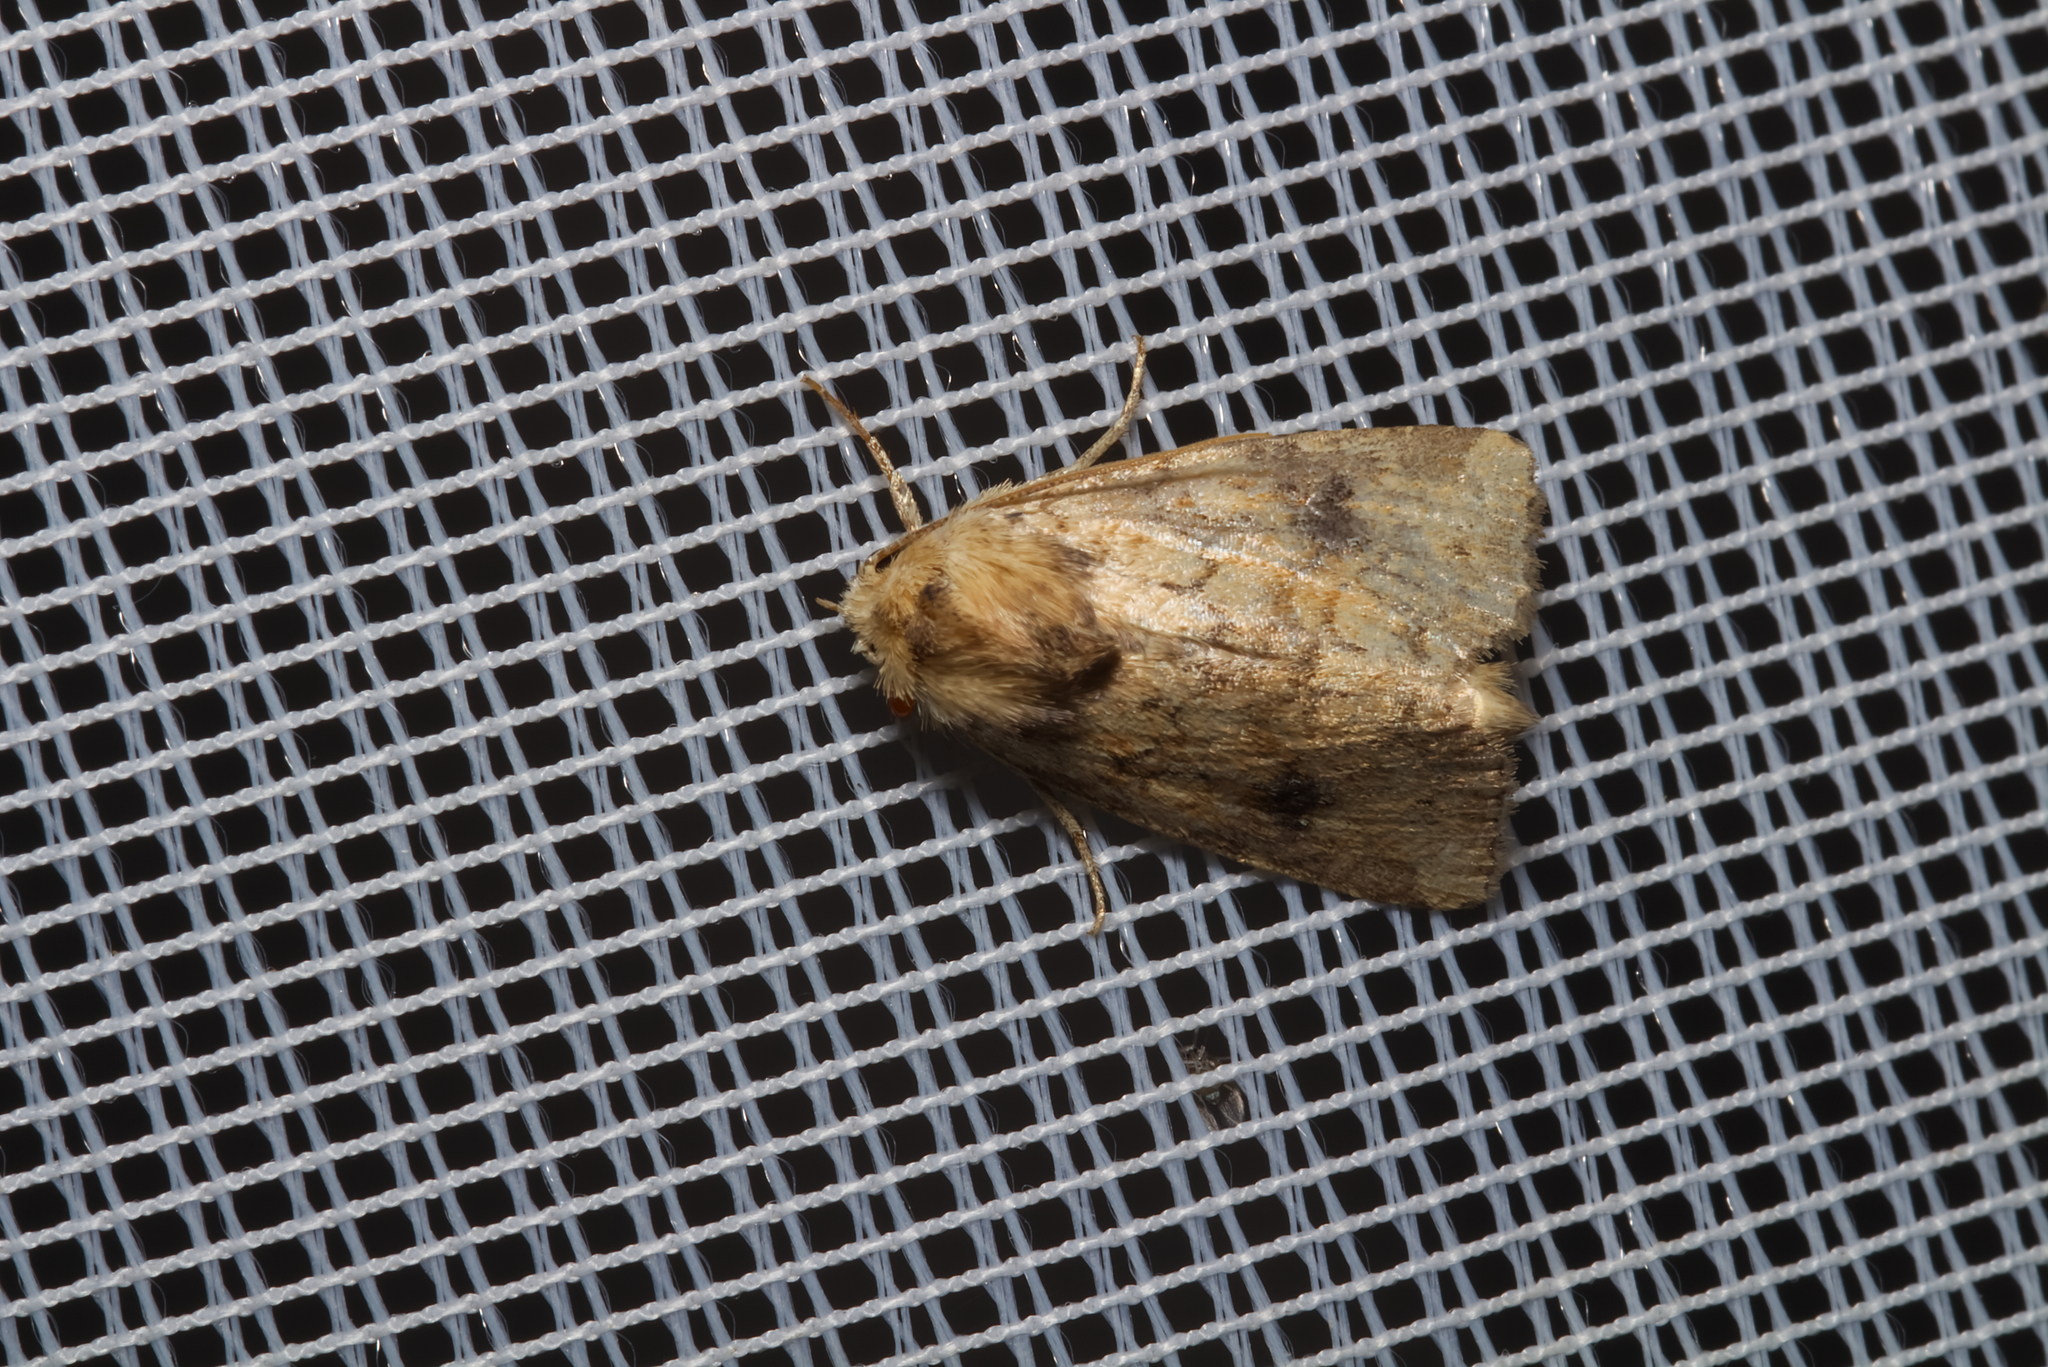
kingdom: Animalia
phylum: Arthropoda
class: Insecta
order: Lepidoptera
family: Noctuidae
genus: Atypha
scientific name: Atypha pulmonaris
